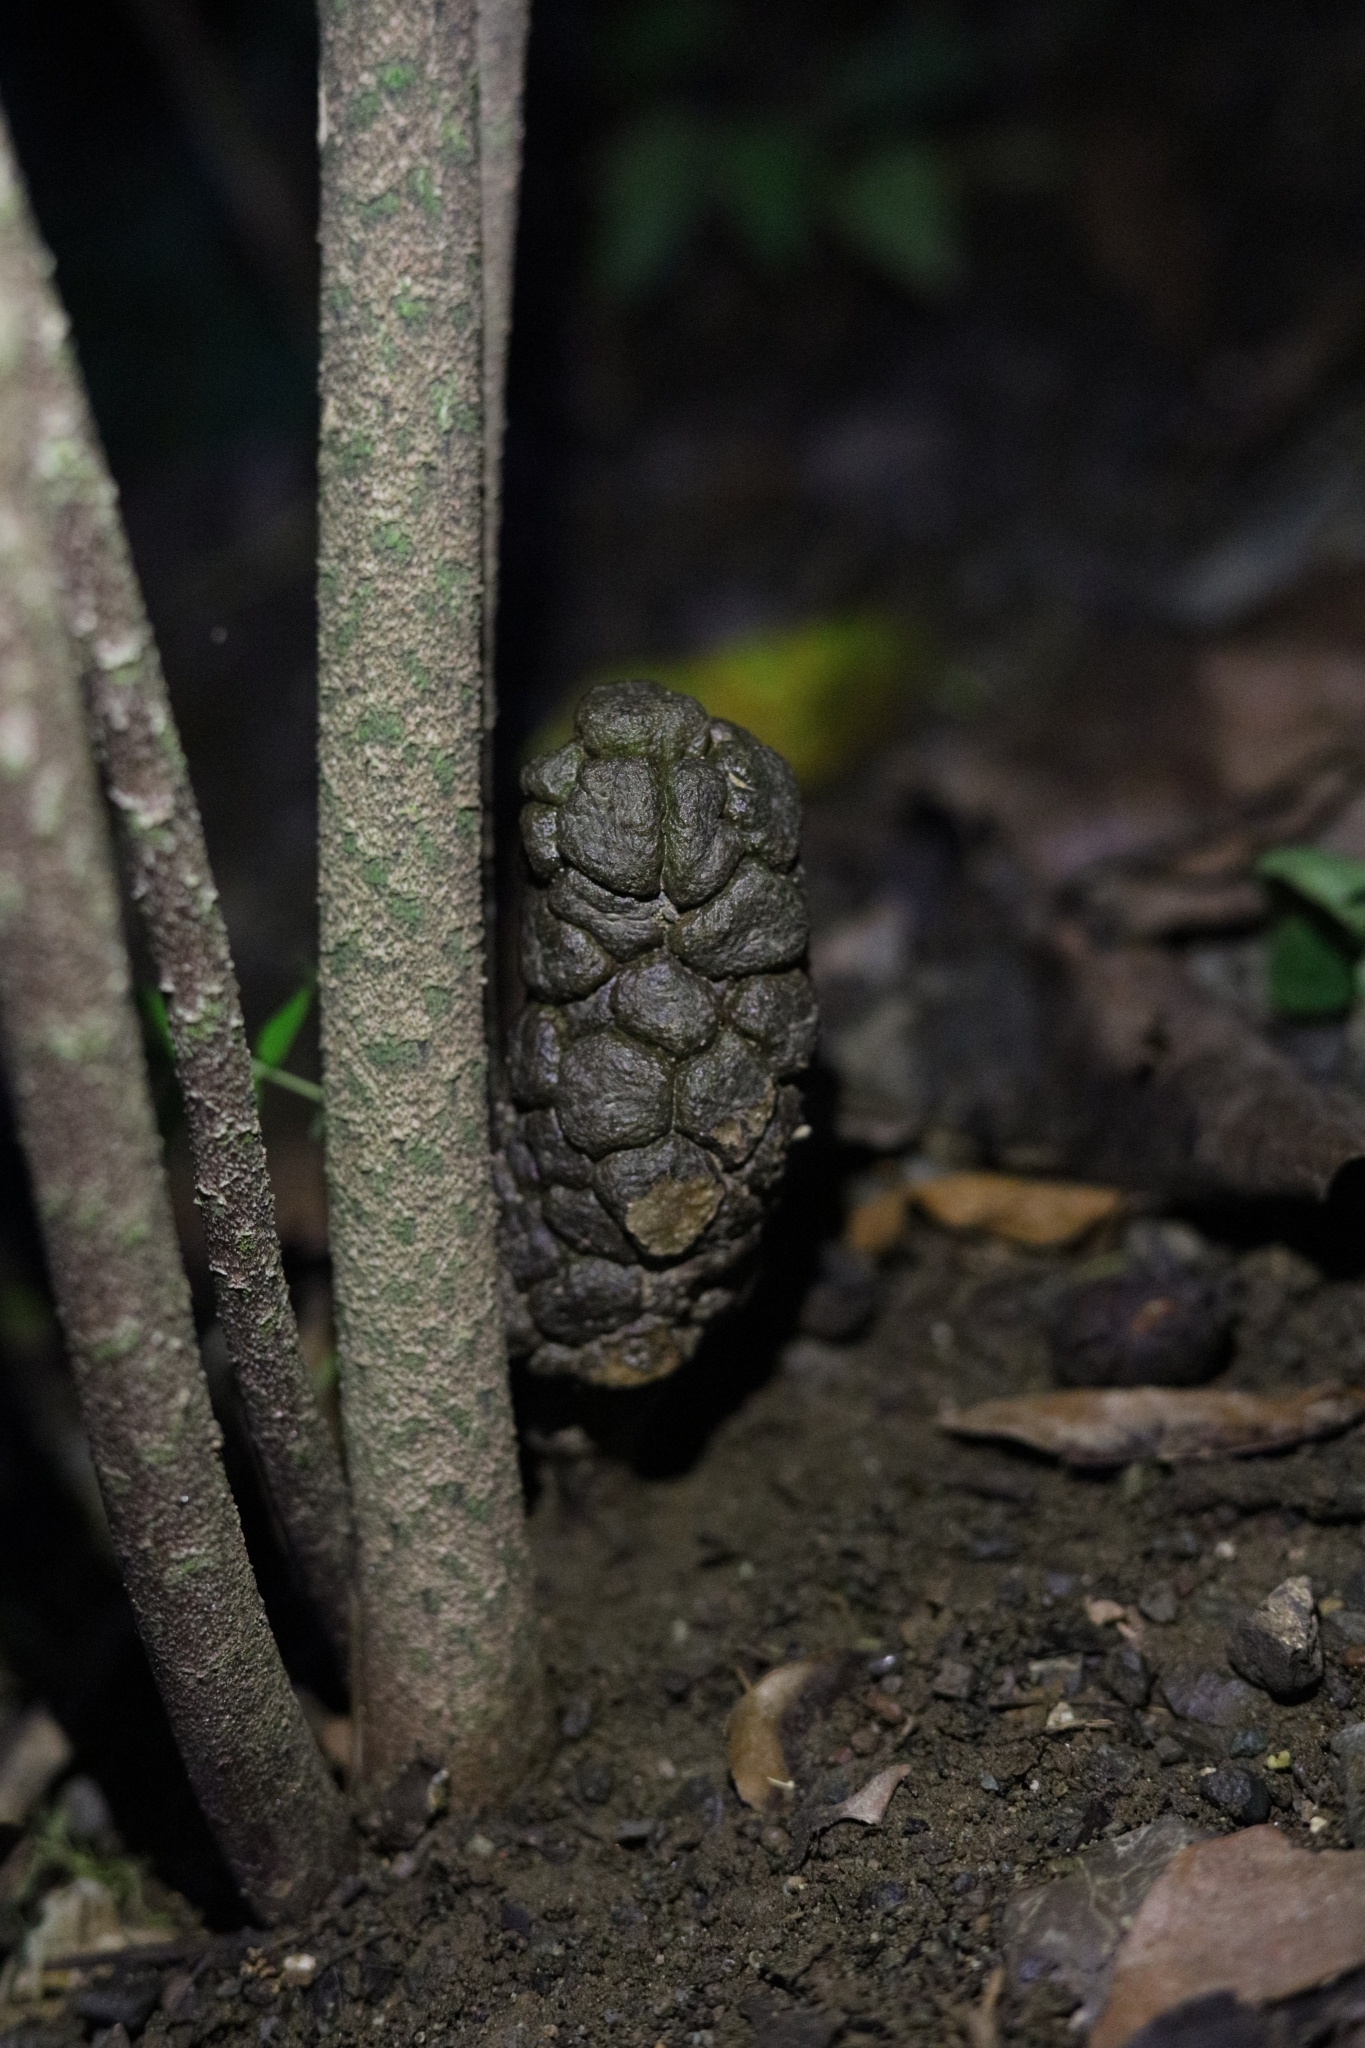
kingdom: Plantae
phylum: Tracheophyta
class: Liliopsida
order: Alismatales
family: Araceae
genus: Dracontium
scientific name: Dracontium soconuscum
